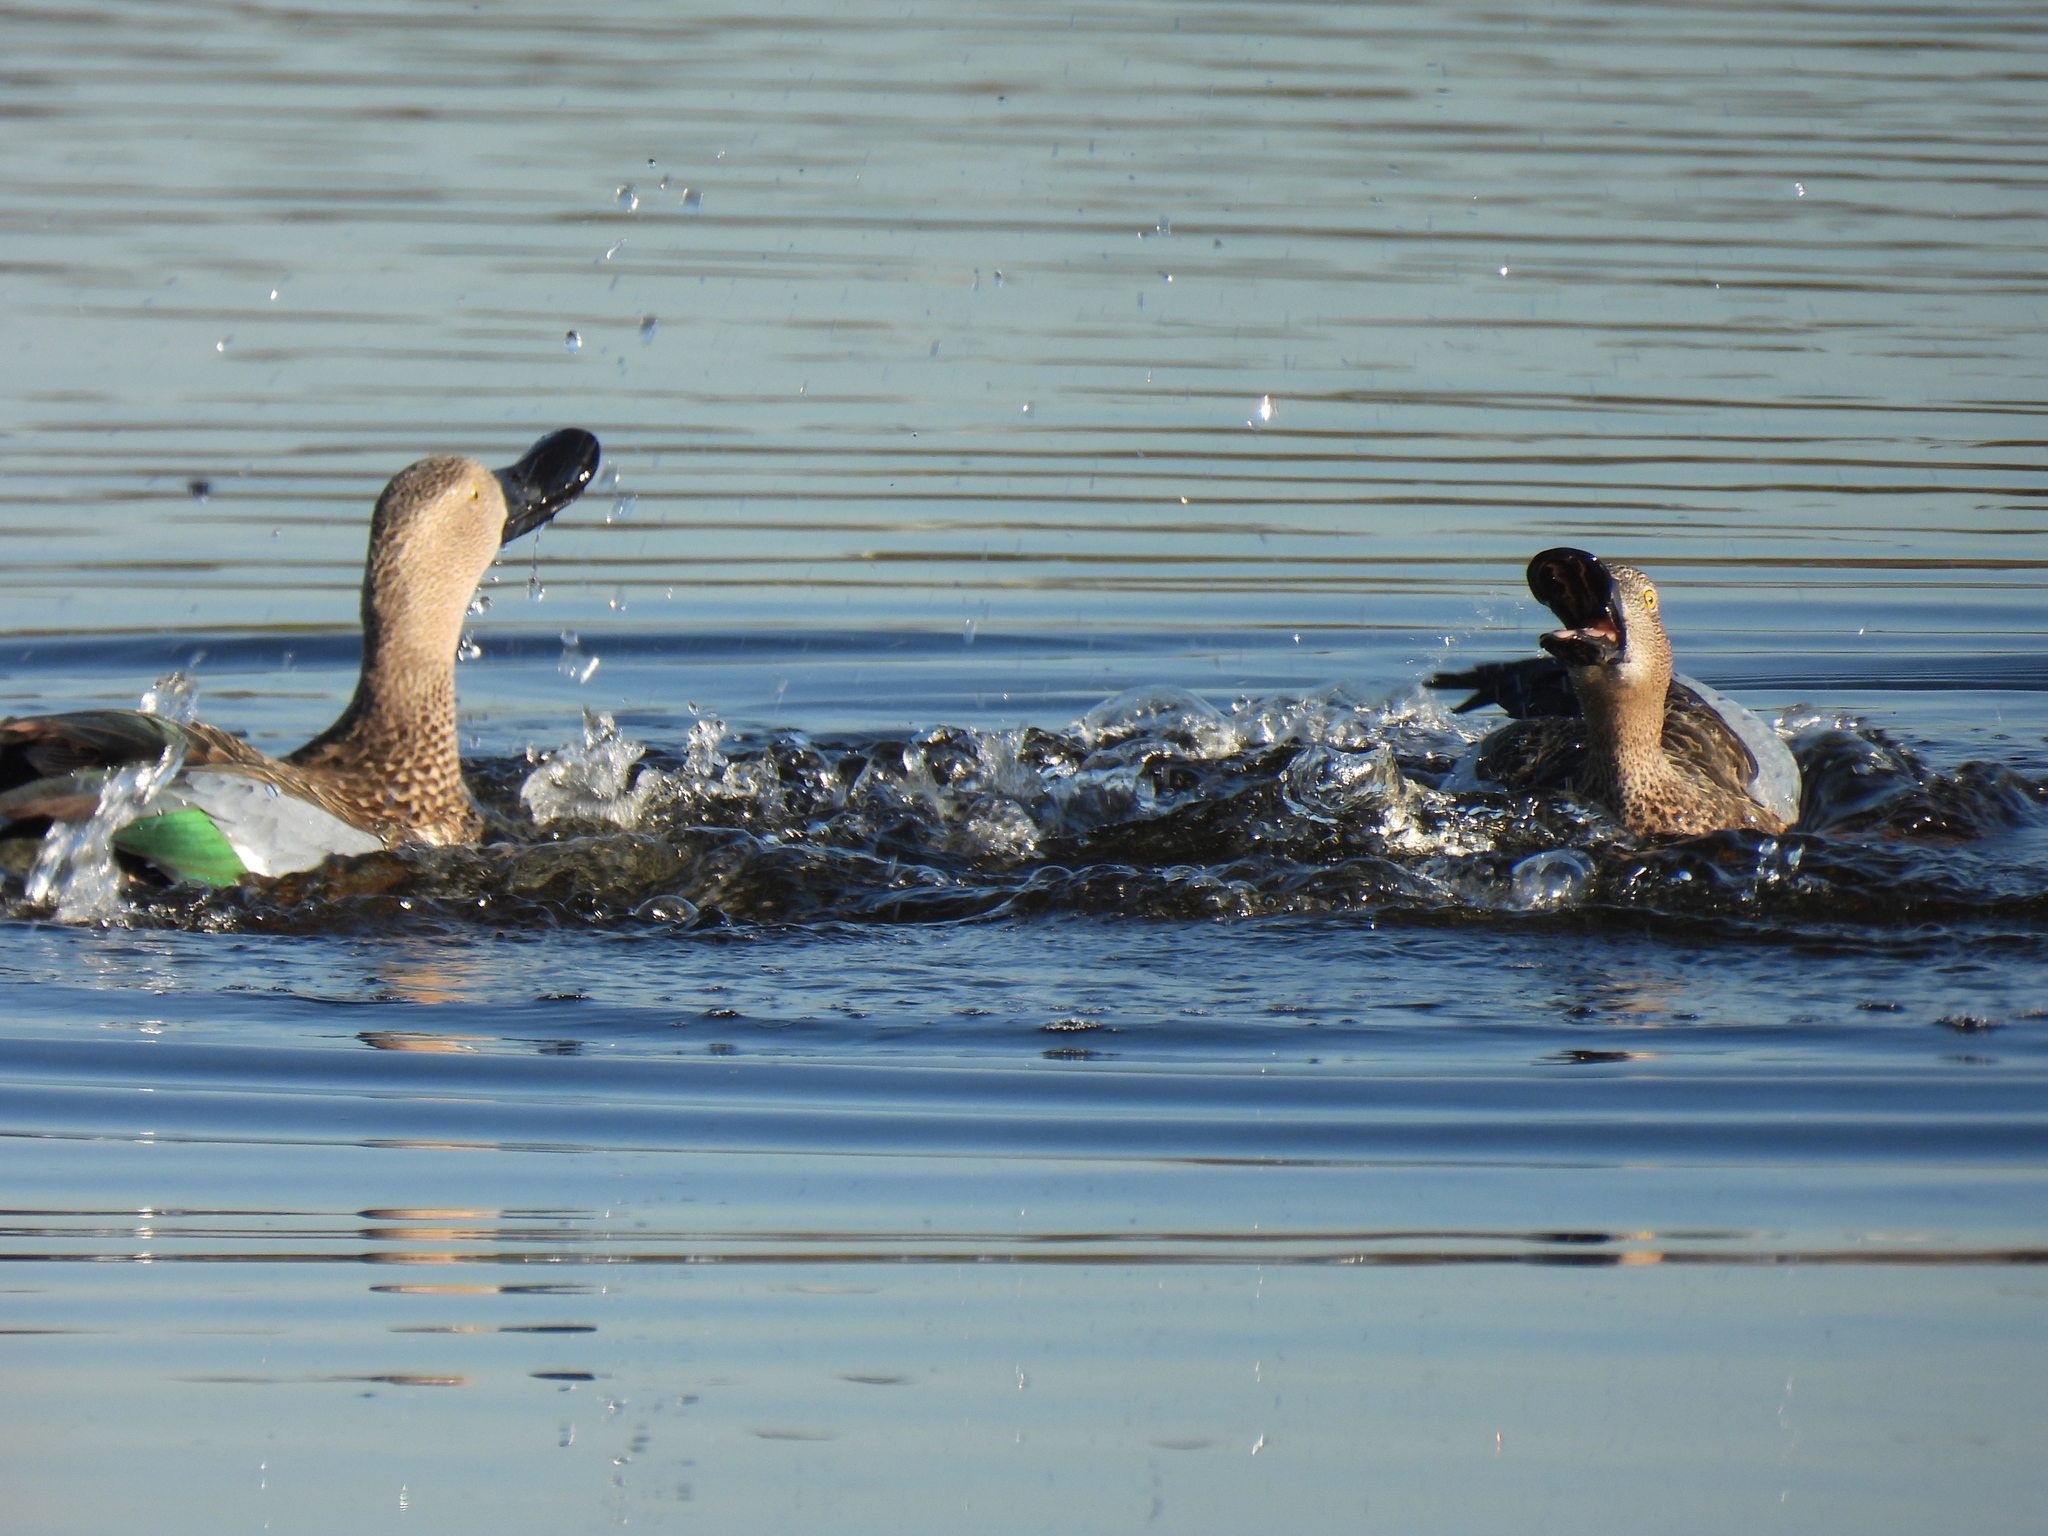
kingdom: Animalia
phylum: Chordata
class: Aves
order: Anseriformes
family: Anatidae
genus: Spatula
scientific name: Spatula smithii
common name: Cape shoveler
